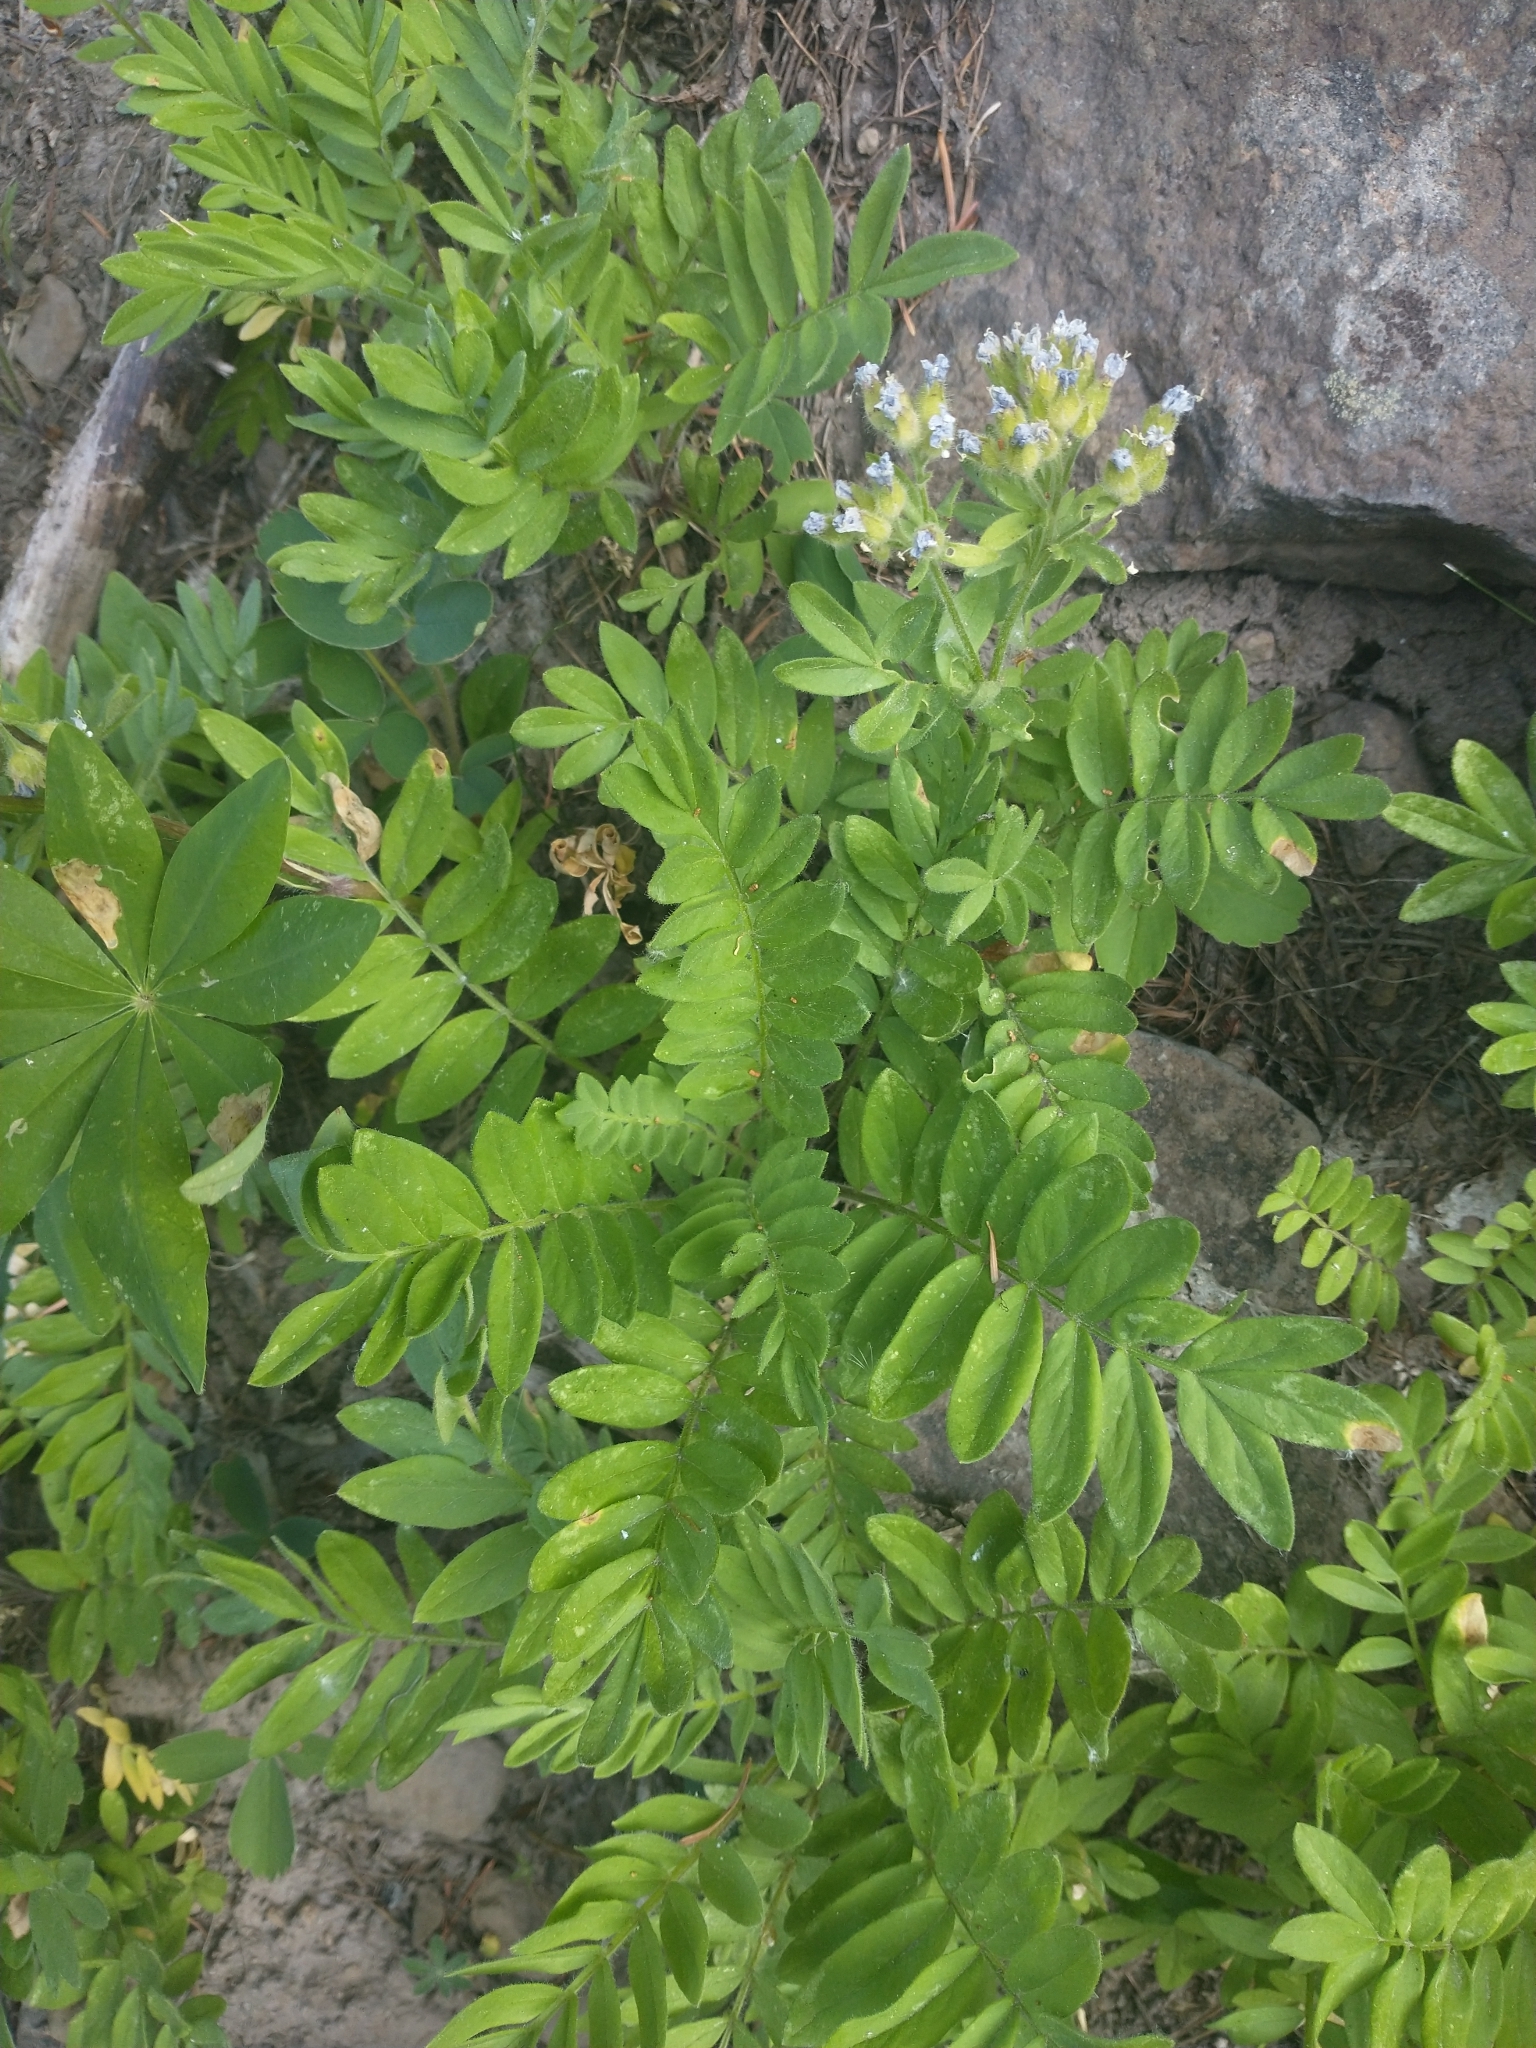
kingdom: Plantae
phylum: Tracheophyta
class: Magnoliopsida
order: Ericales
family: Polemoniaceae
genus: Polemonium
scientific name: Polemonium californicum
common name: California jacob's ladder
